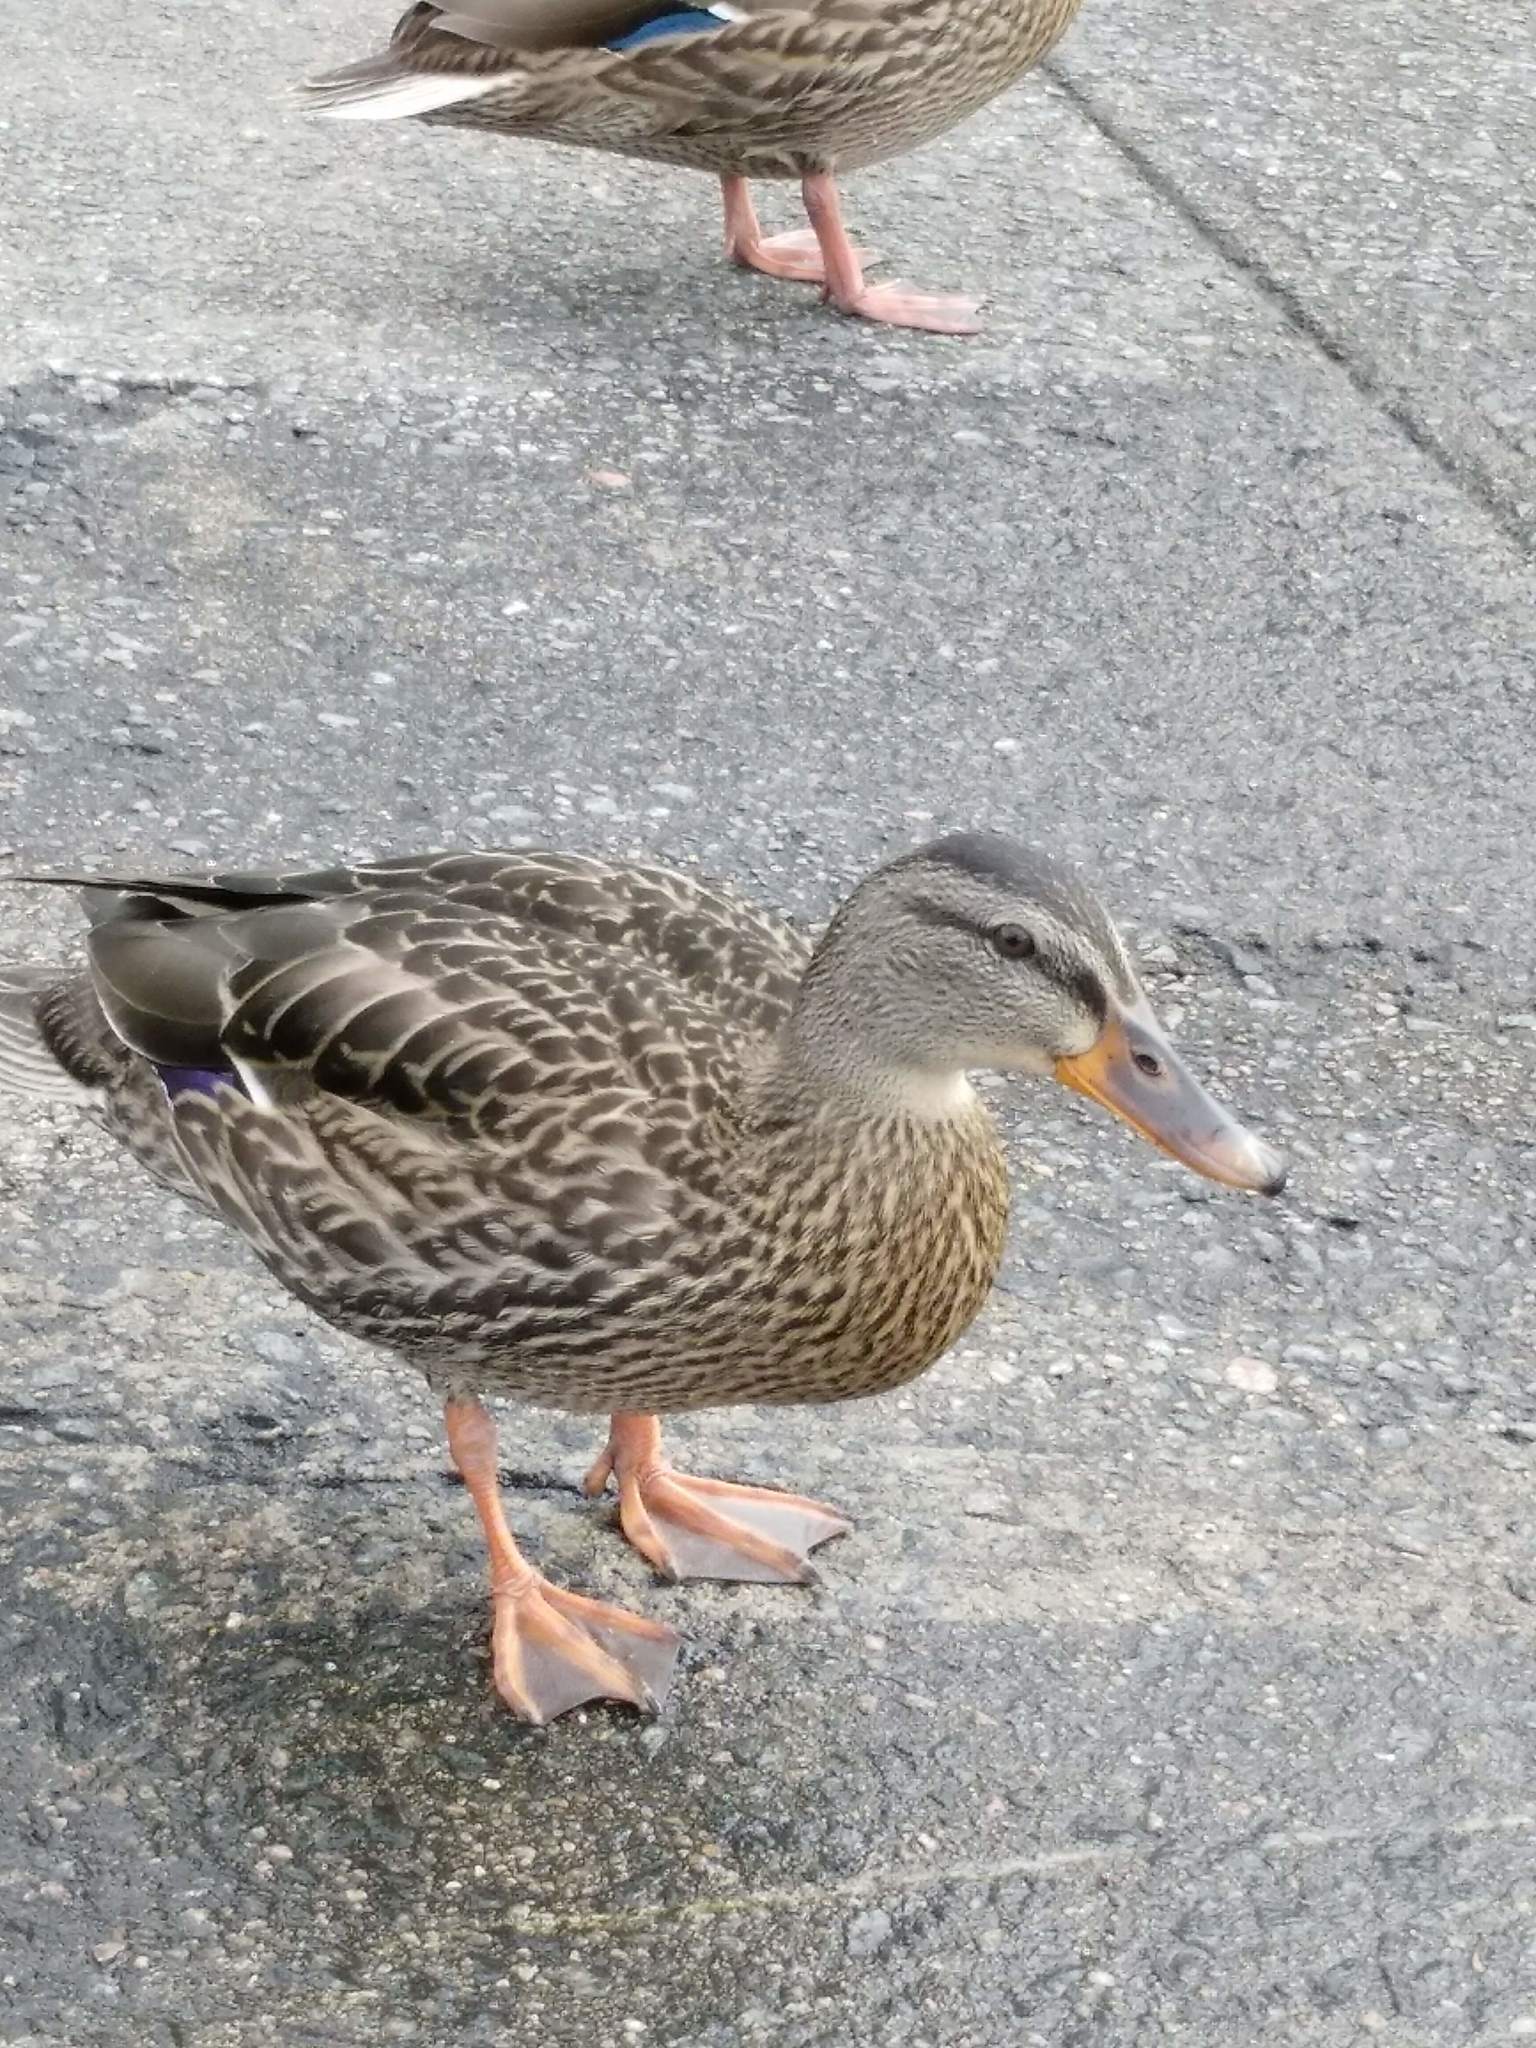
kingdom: Animalia
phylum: Chordata
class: Aves
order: Anseriformes
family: Anatidae
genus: Anas
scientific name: Anas platyrhynchos
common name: Mallard
